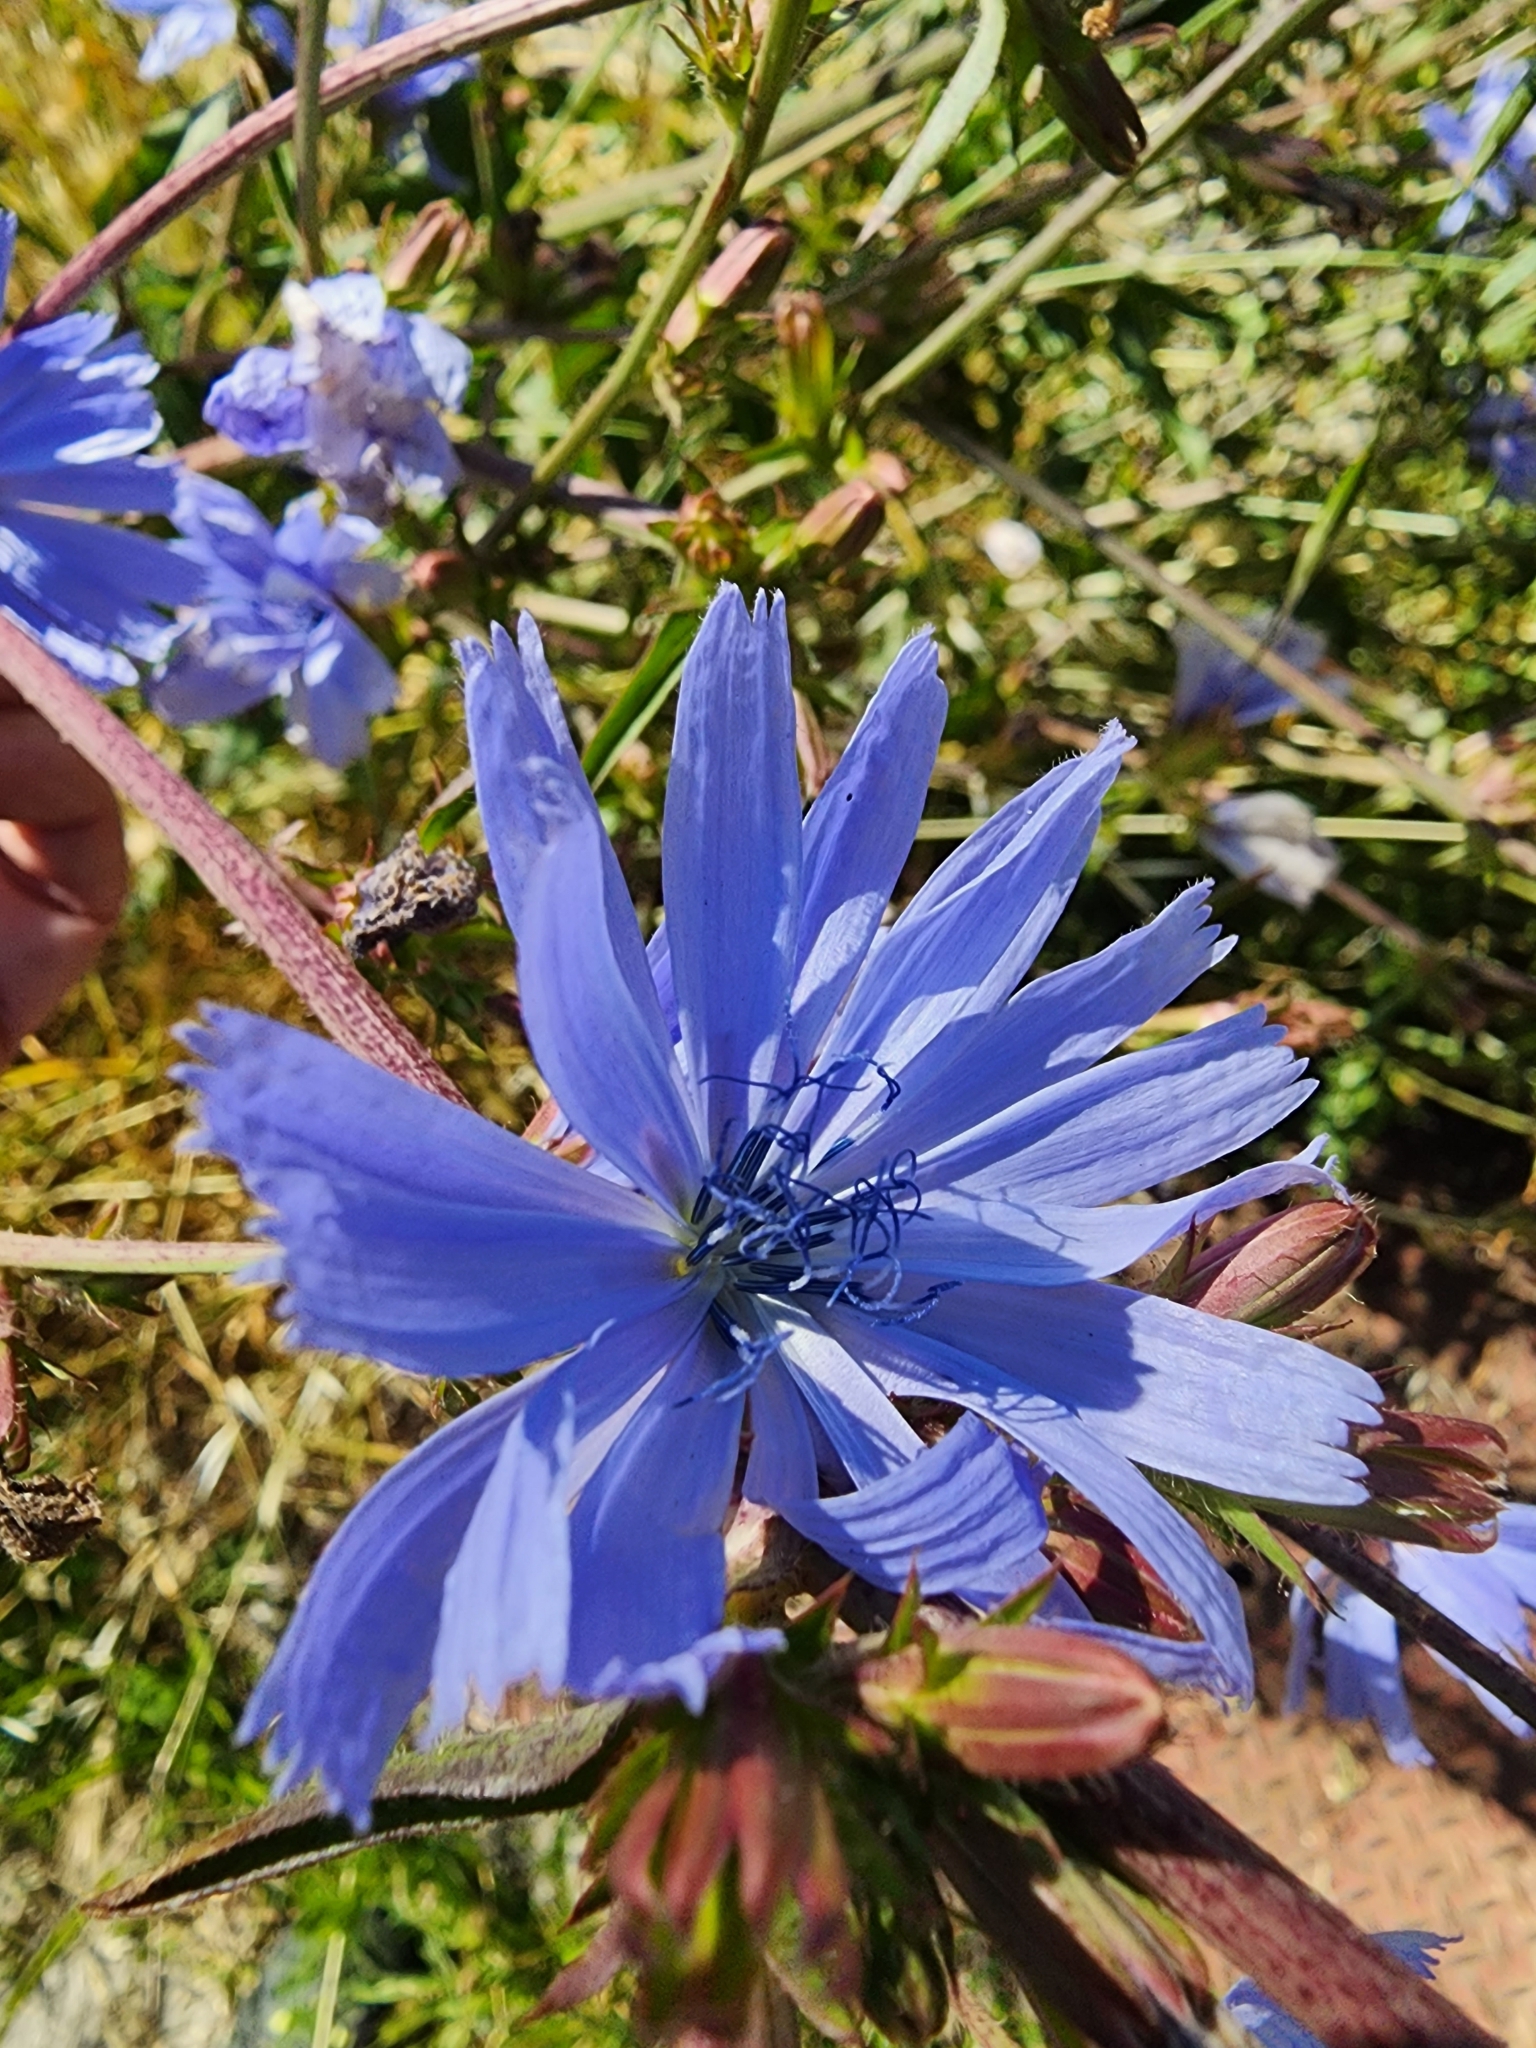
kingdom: Plantae
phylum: Tracheophyta
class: Magnoliopsida
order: Asterales
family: Asteraceae
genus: Cichorium
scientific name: Cichorium intybus
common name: Chicory
